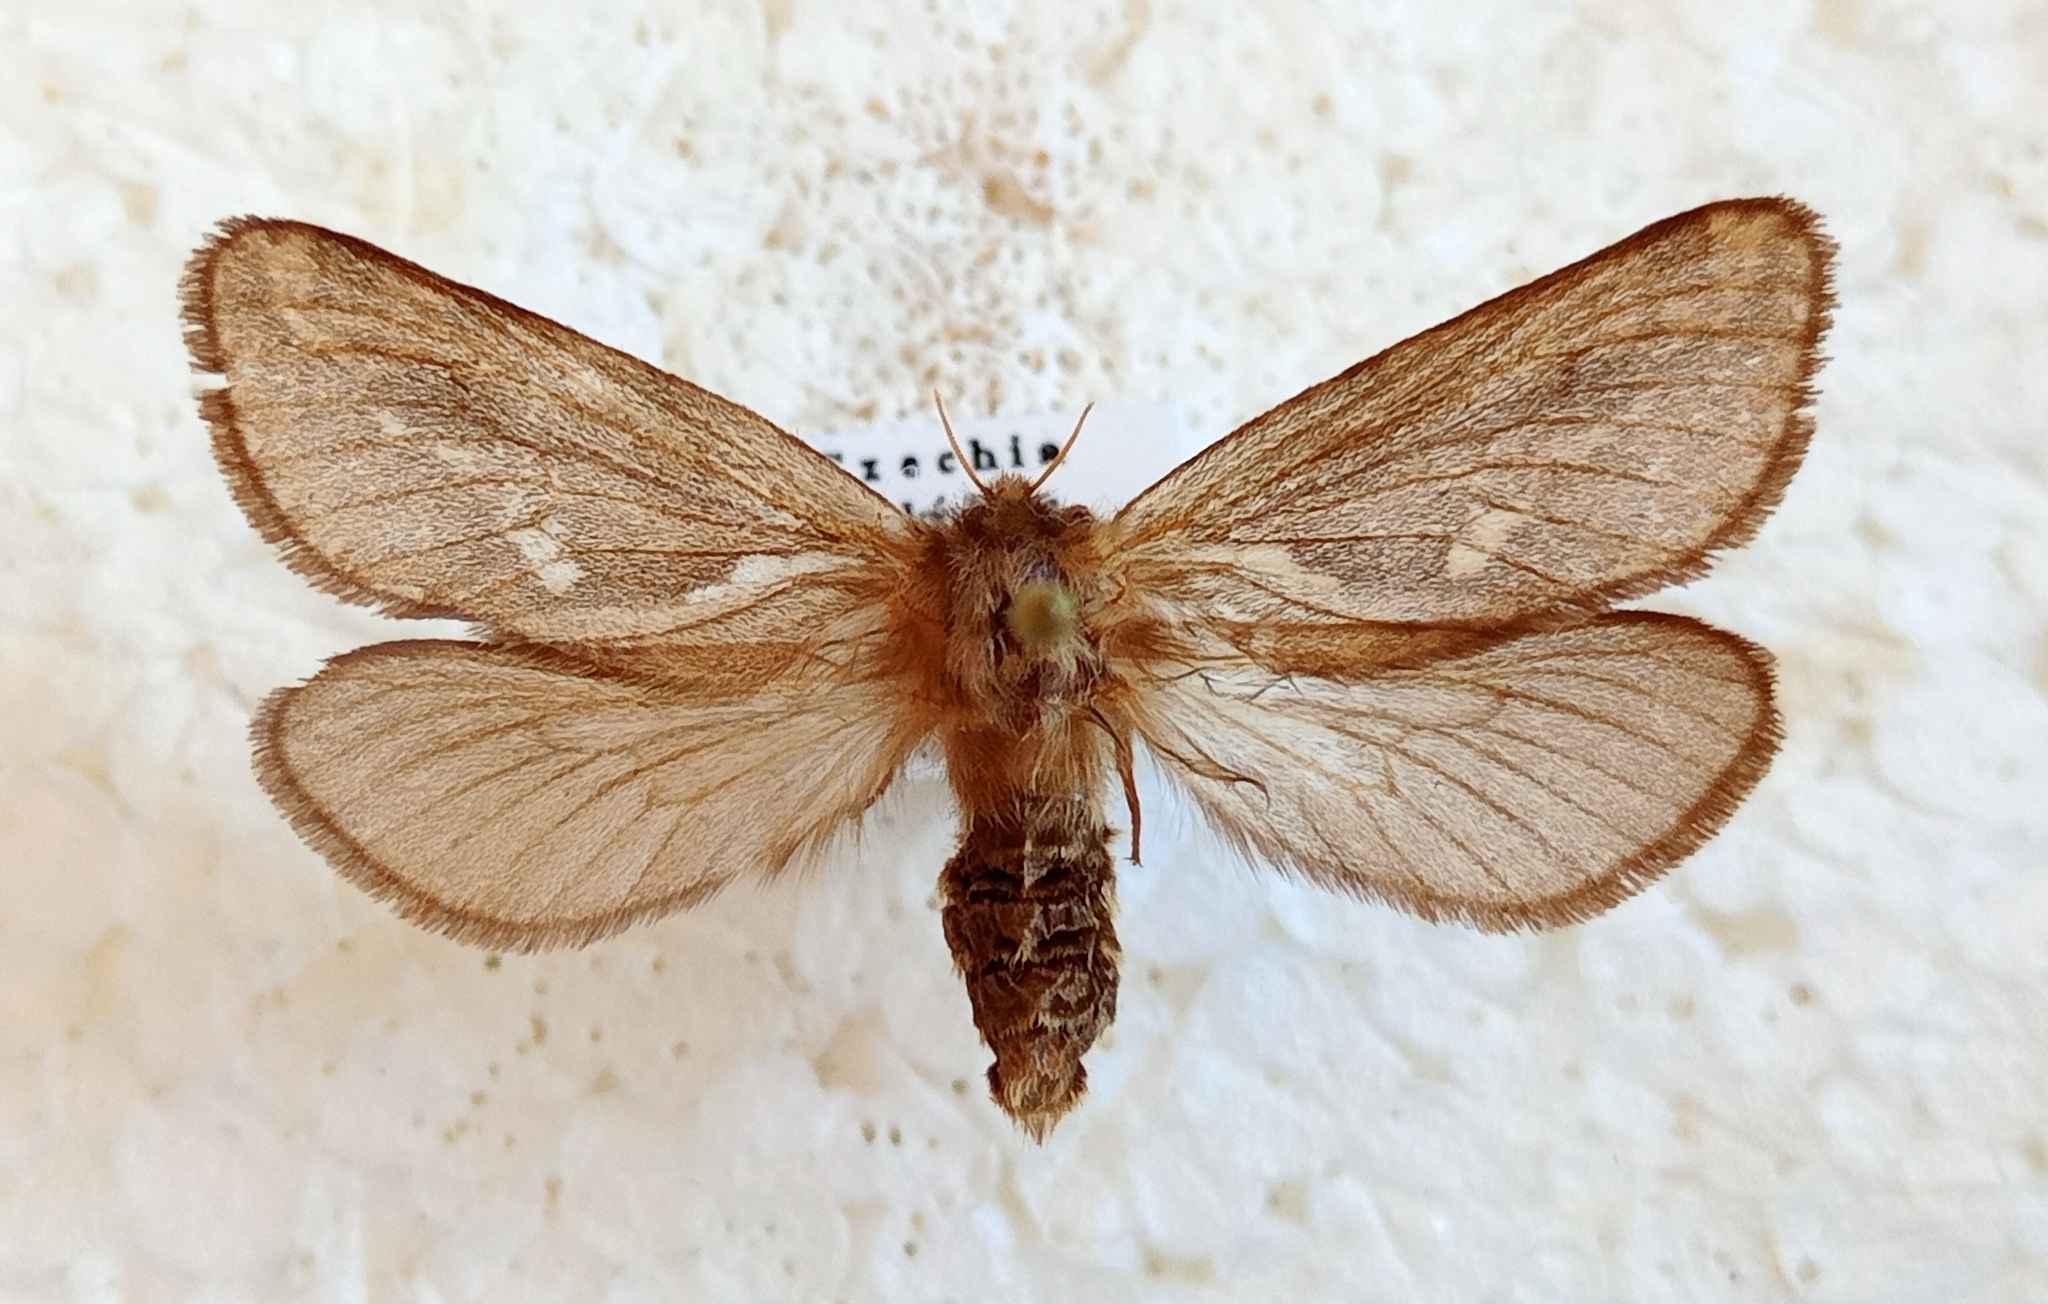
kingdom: Animalia
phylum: Arthropoda
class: Insecta
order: Lepidoptera
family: Hepialidae
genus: Korscheltellus
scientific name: Korscheltellus lupulina
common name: Common swift
